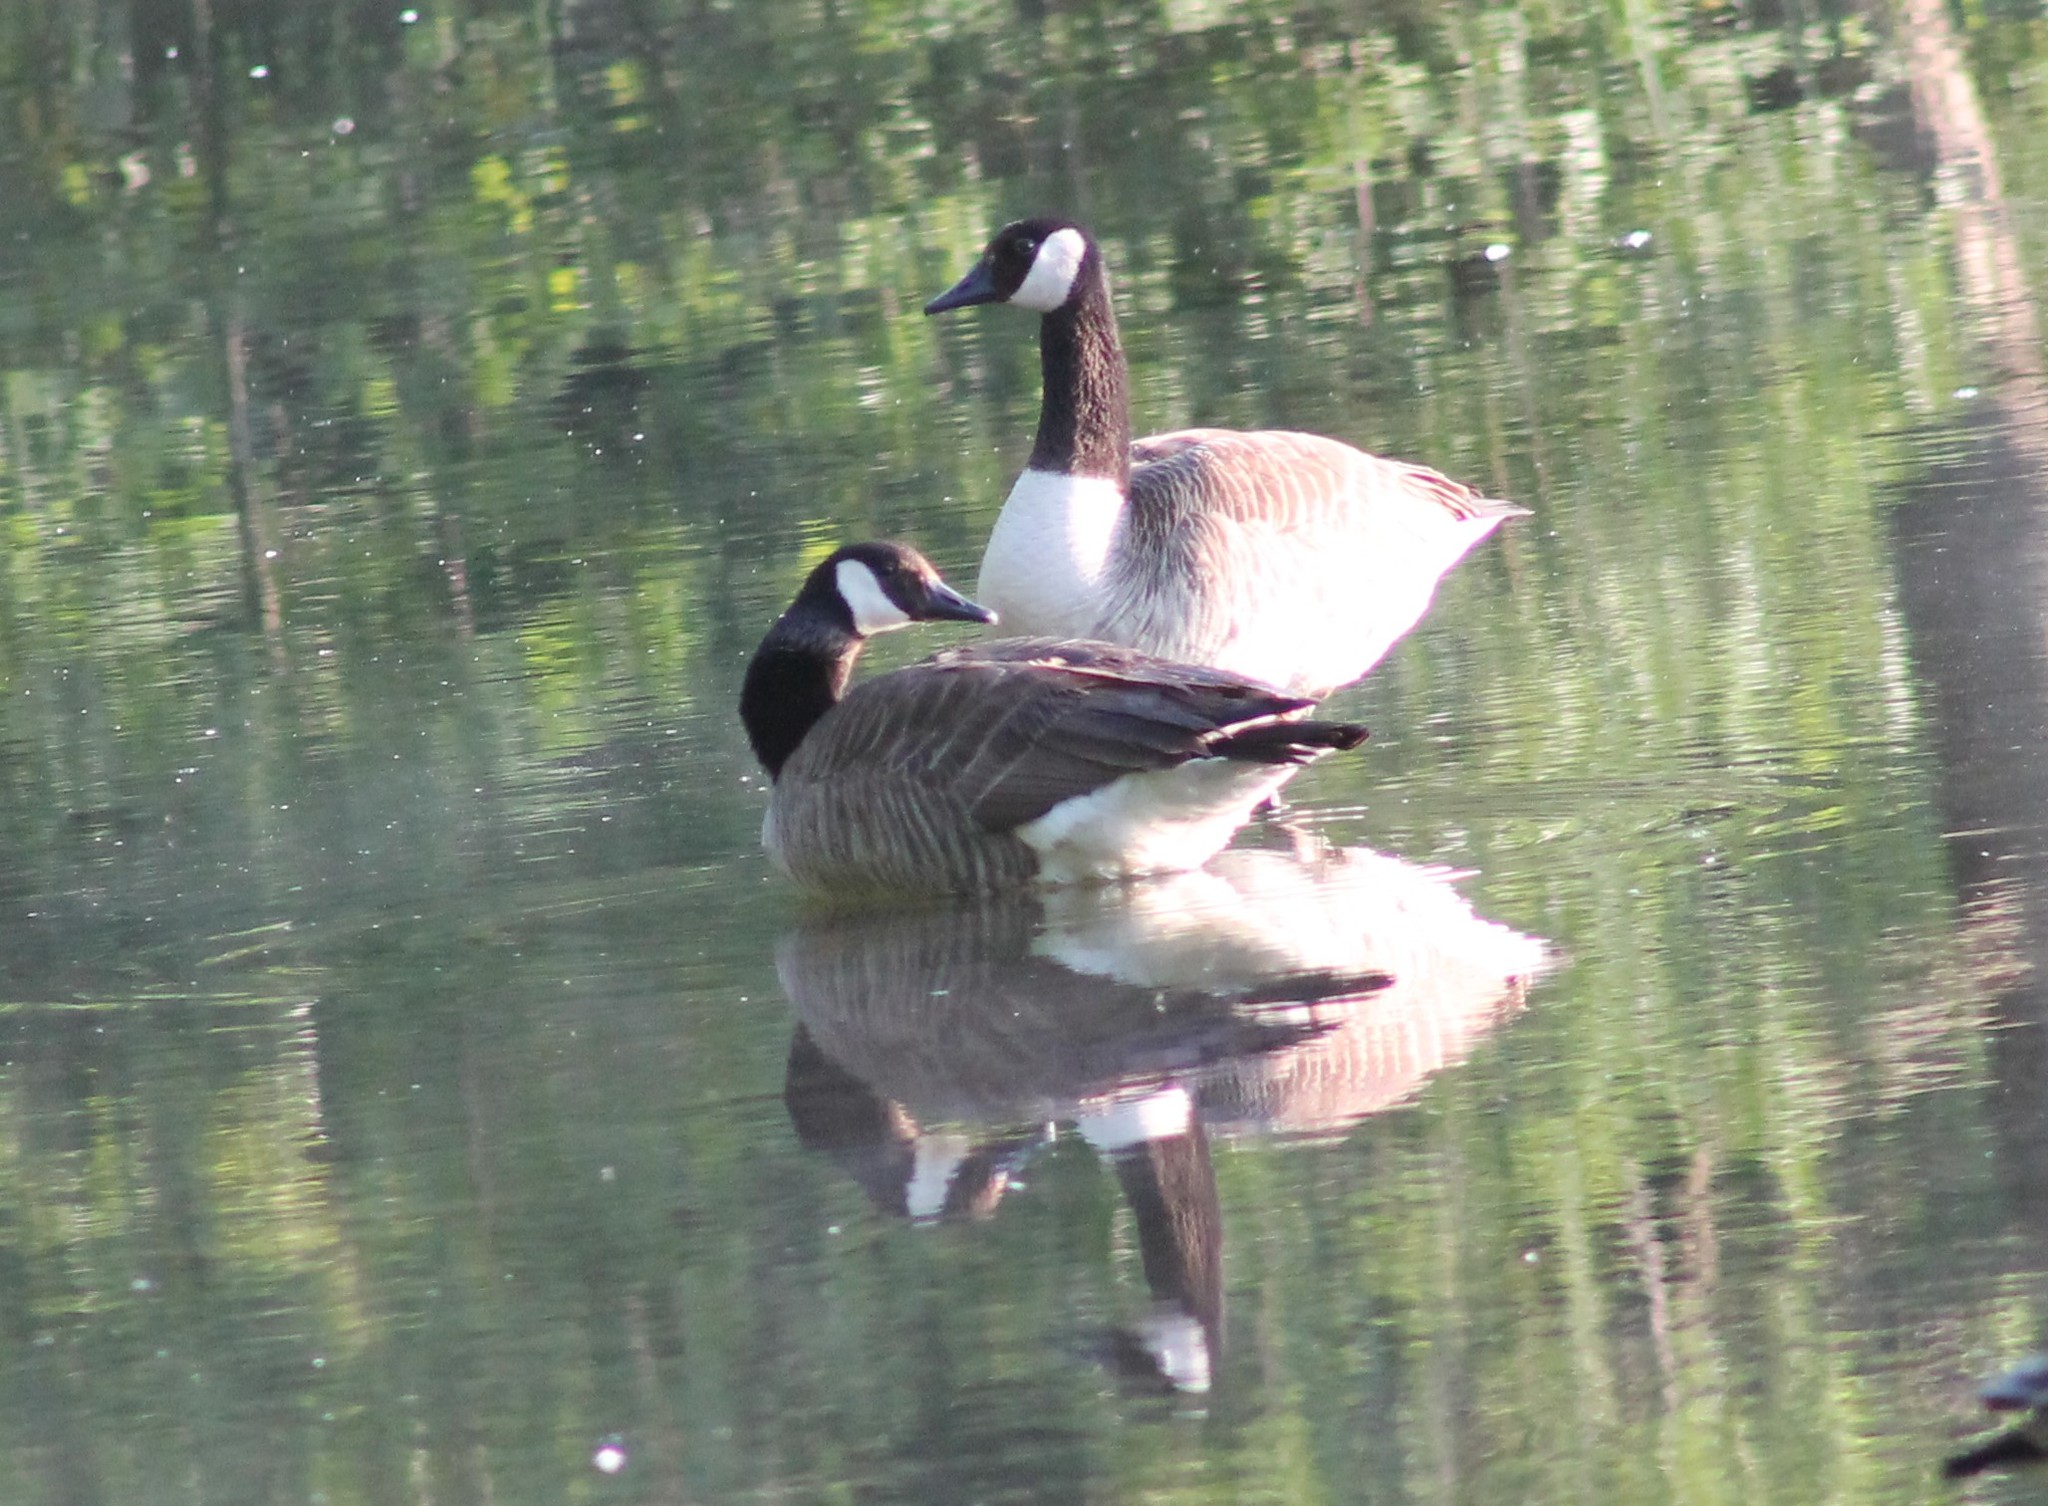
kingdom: Animalia
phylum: Chordata
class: Aves
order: Anseriformes
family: Anatidae
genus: Branta
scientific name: Branta canadensis
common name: Canada goose
